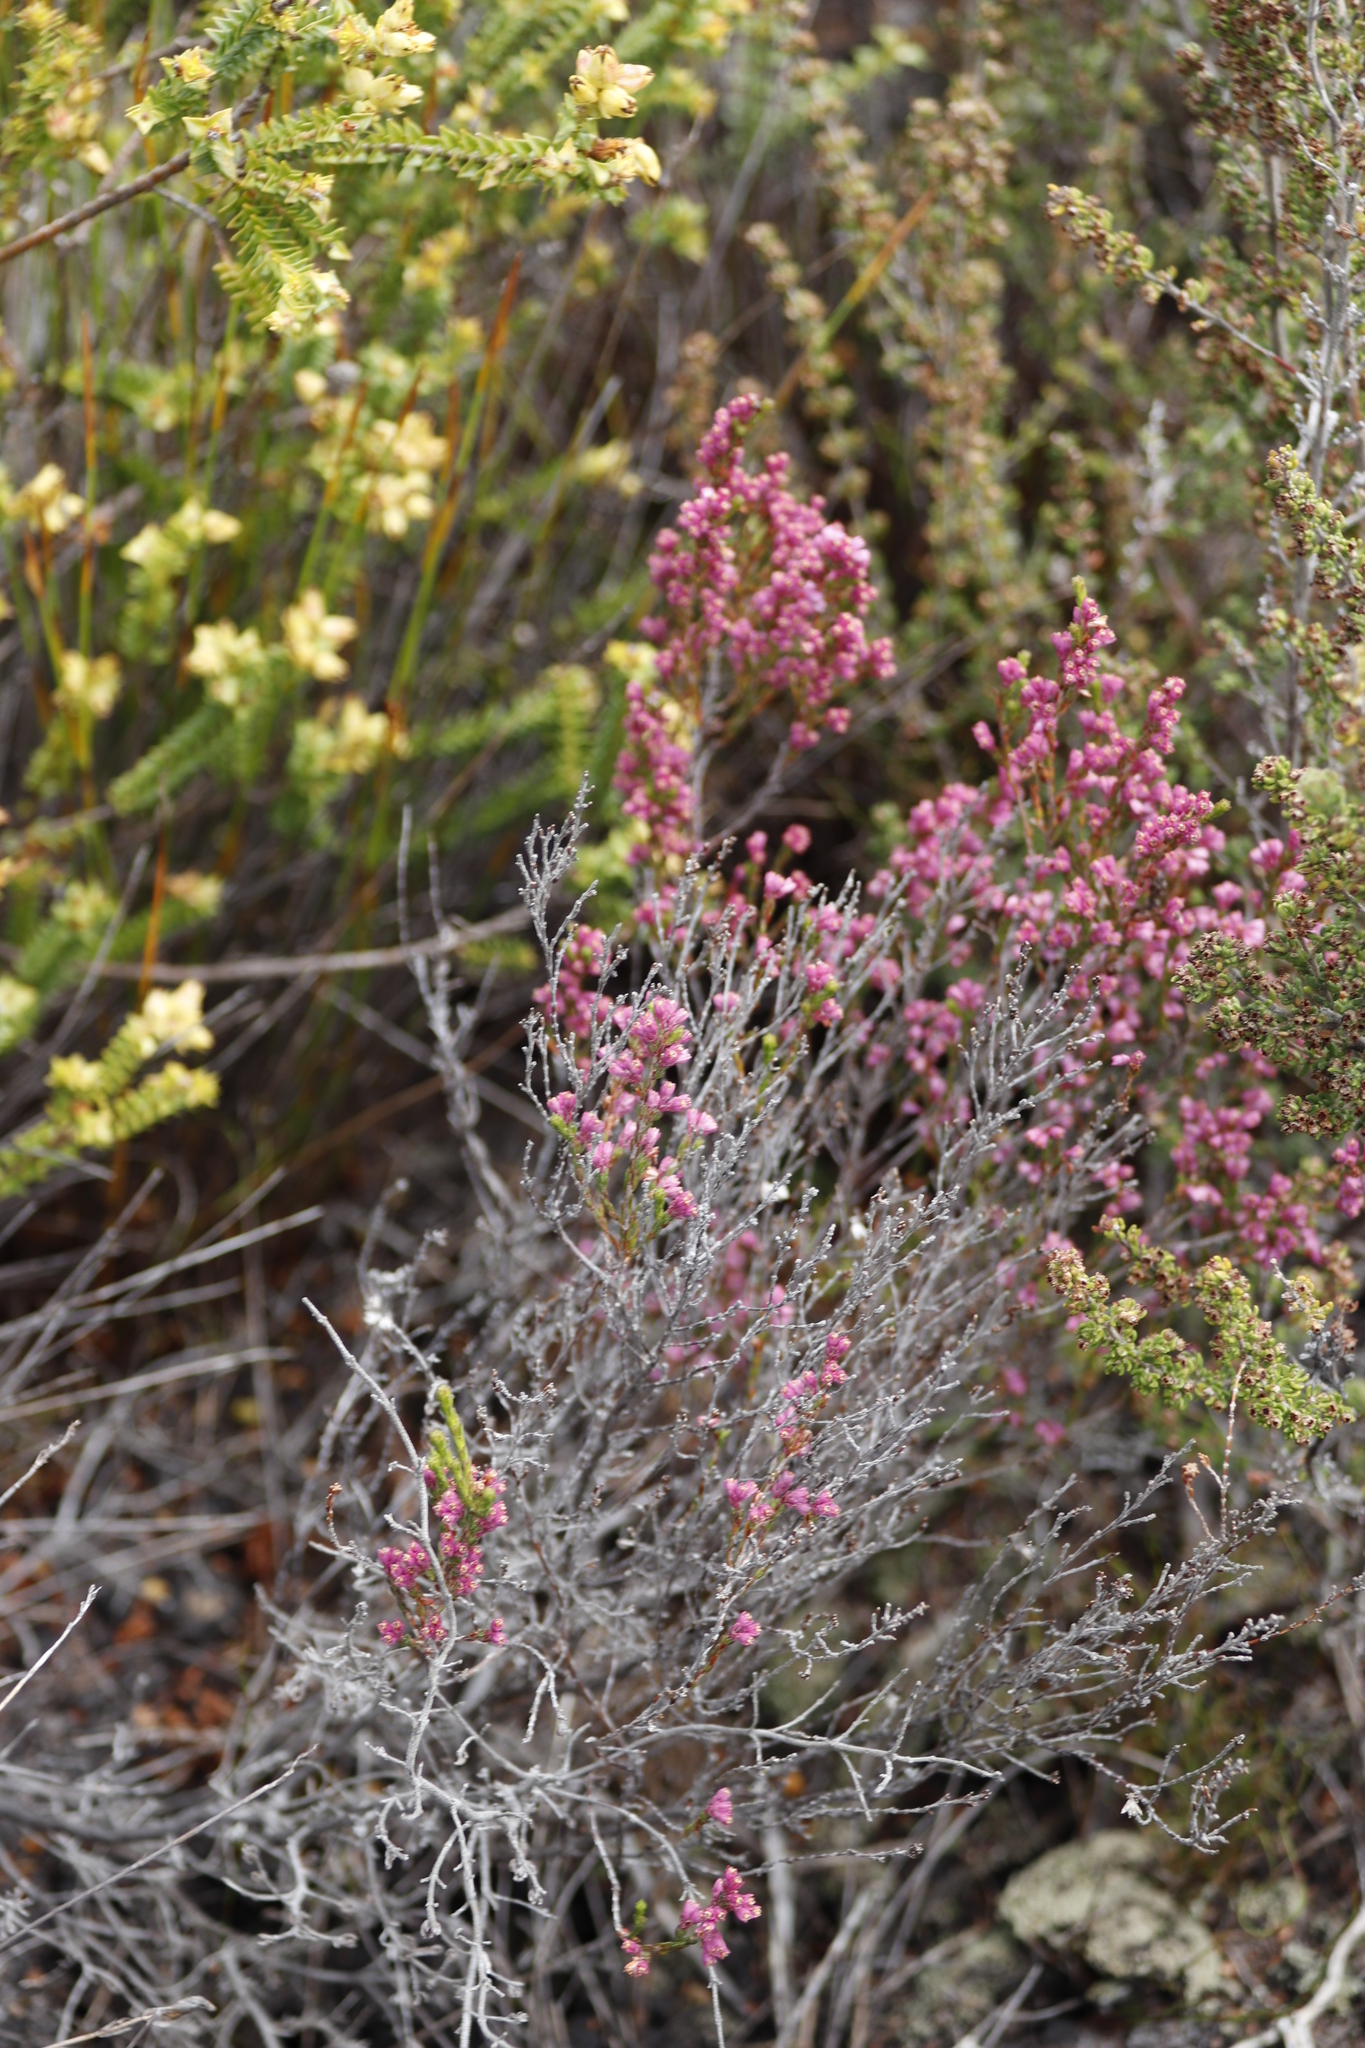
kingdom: Plantae
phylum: Tracheophyta
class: Magnoliopsida
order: Ericales
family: Ericaceae
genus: Erica
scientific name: Erica gnaphaloides
